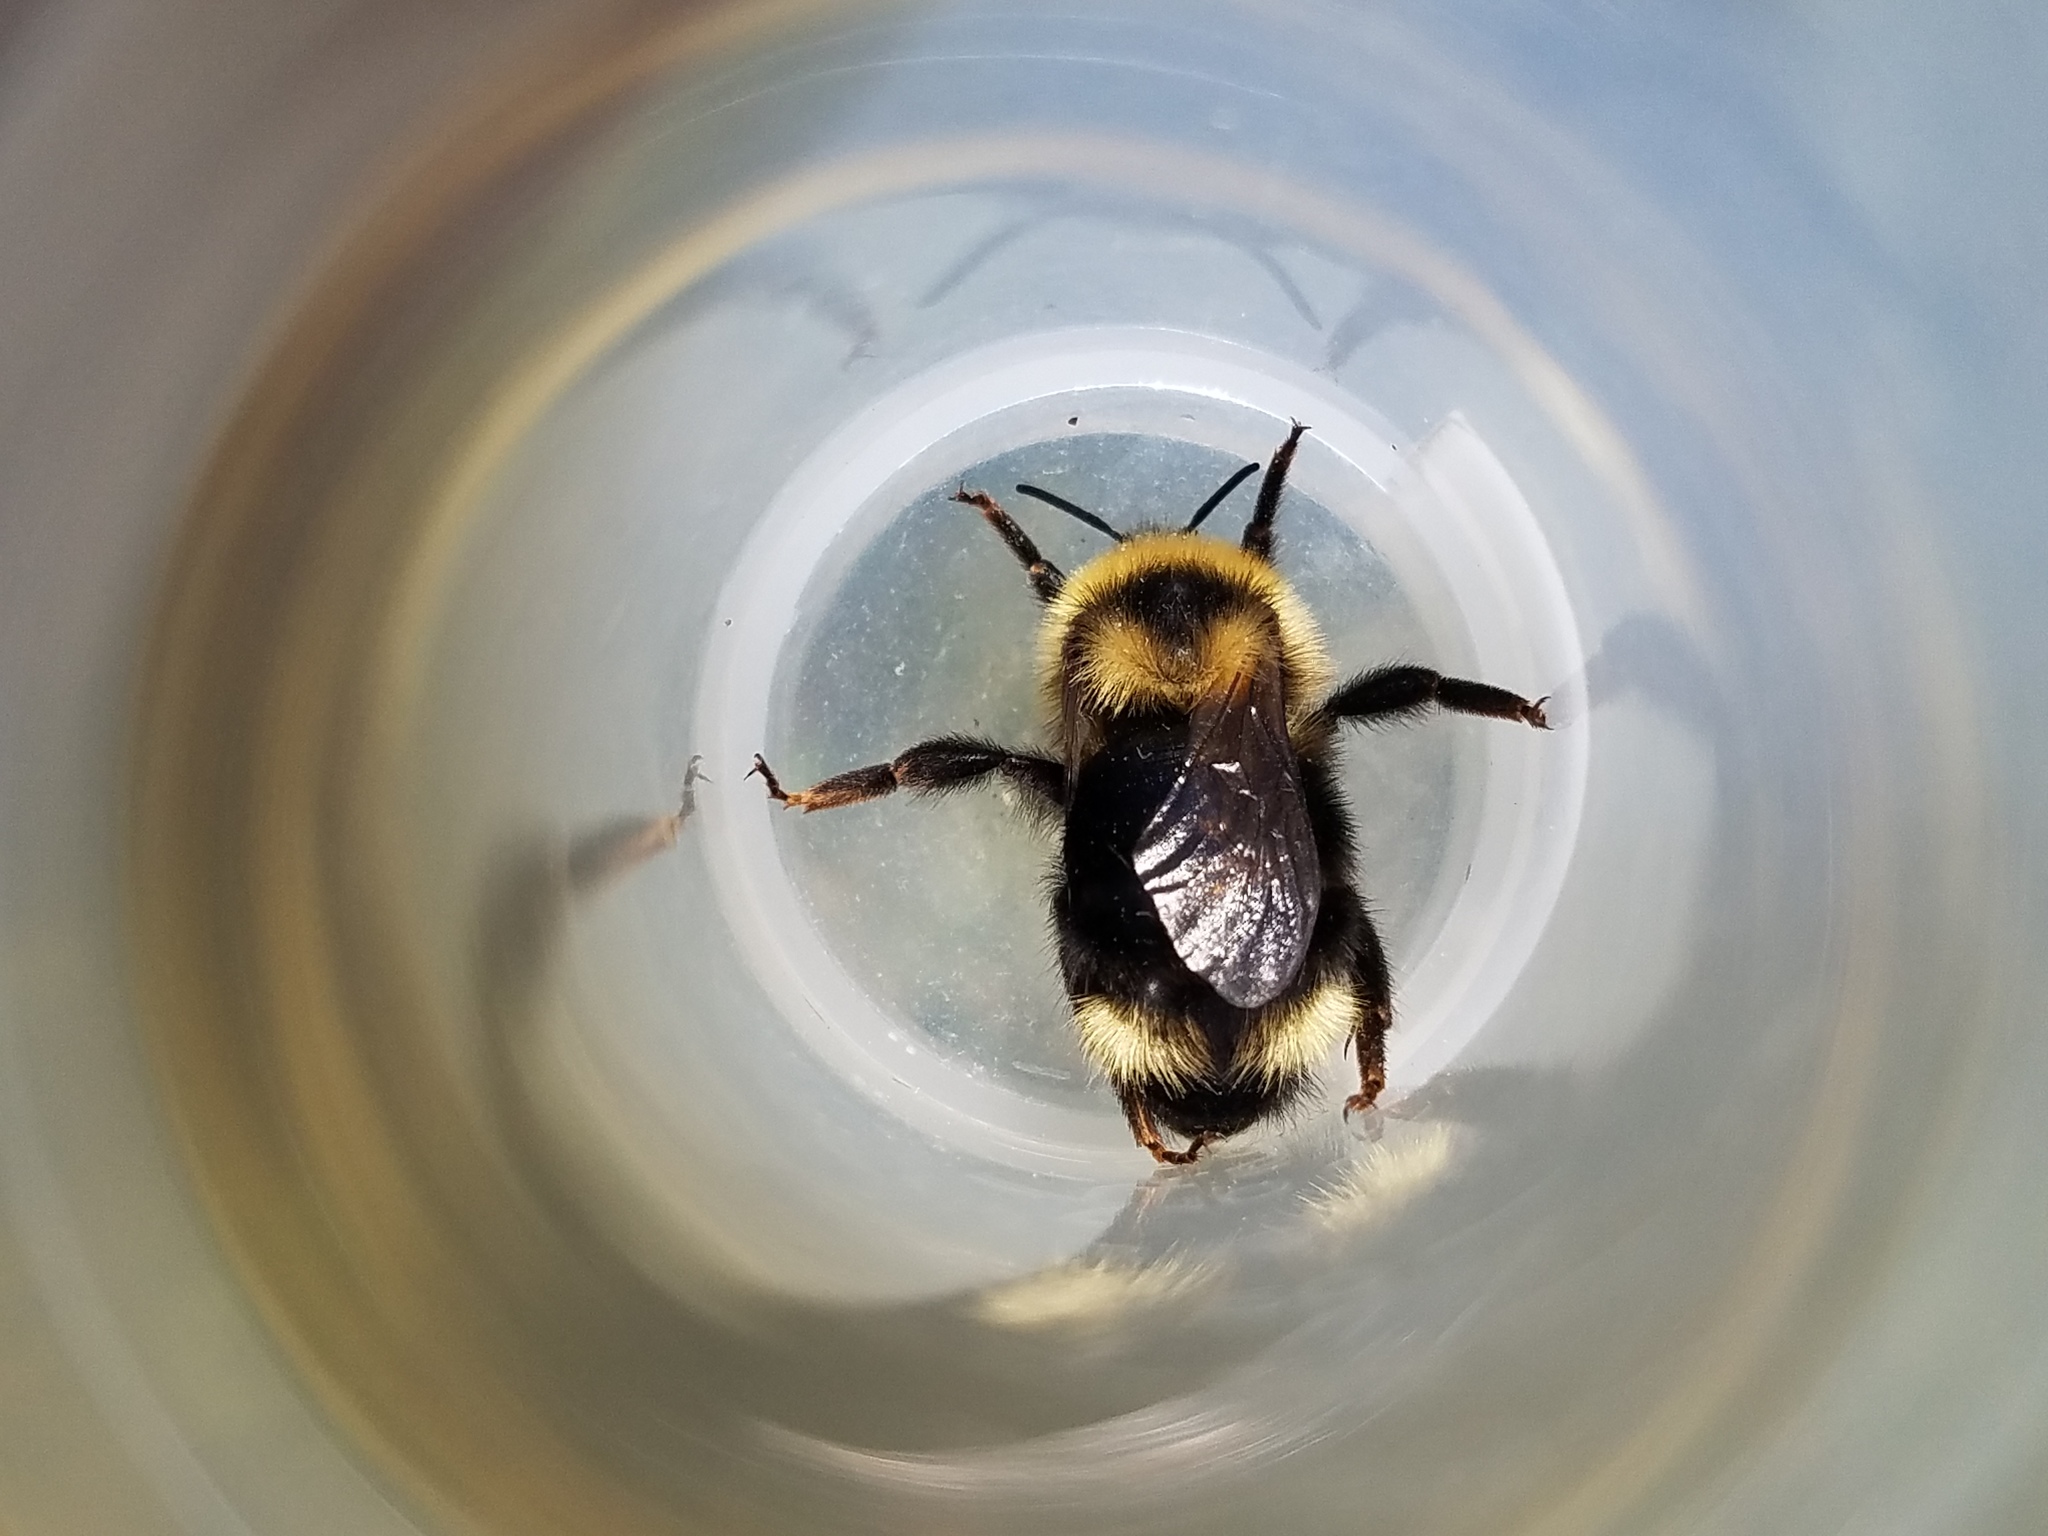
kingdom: Animalia
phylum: Arthropoda
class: Insecta
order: Hymenoptera
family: Apidae
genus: Bombus
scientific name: Bombus flavidus
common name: Fernald cuckoo bumble bee
